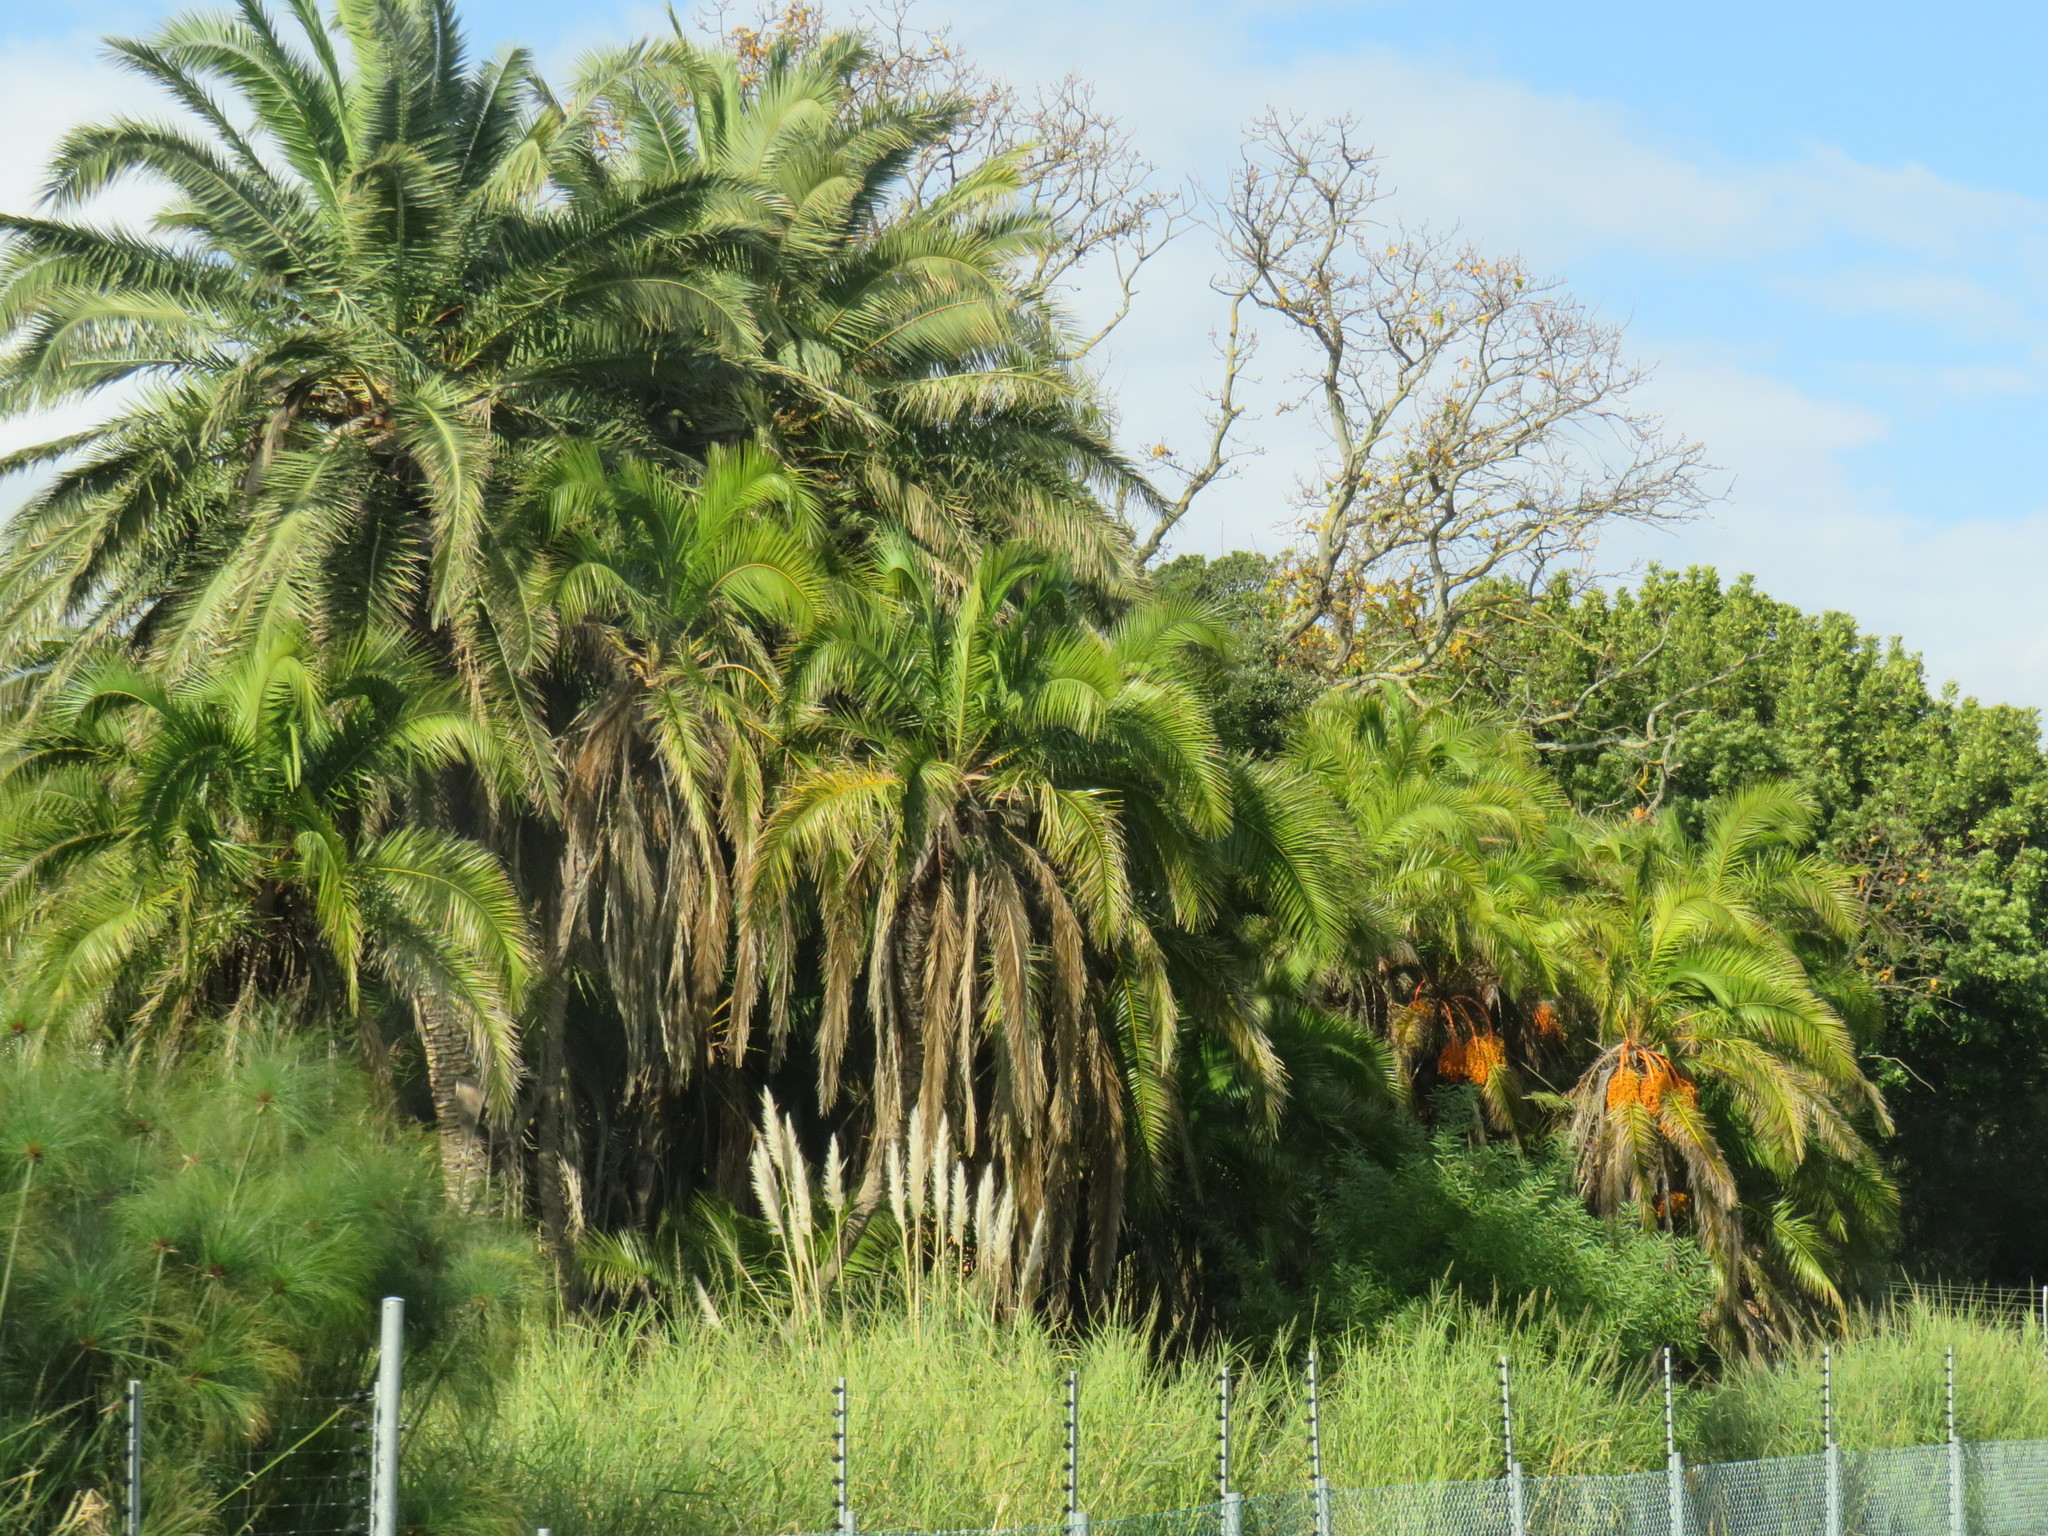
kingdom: Plantae
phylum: Tracheophyta
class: Liliopsida
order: Arecales
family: Arecaceae
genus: Phoenix
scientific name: Phoenix reclinata
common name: Senegal date palm
